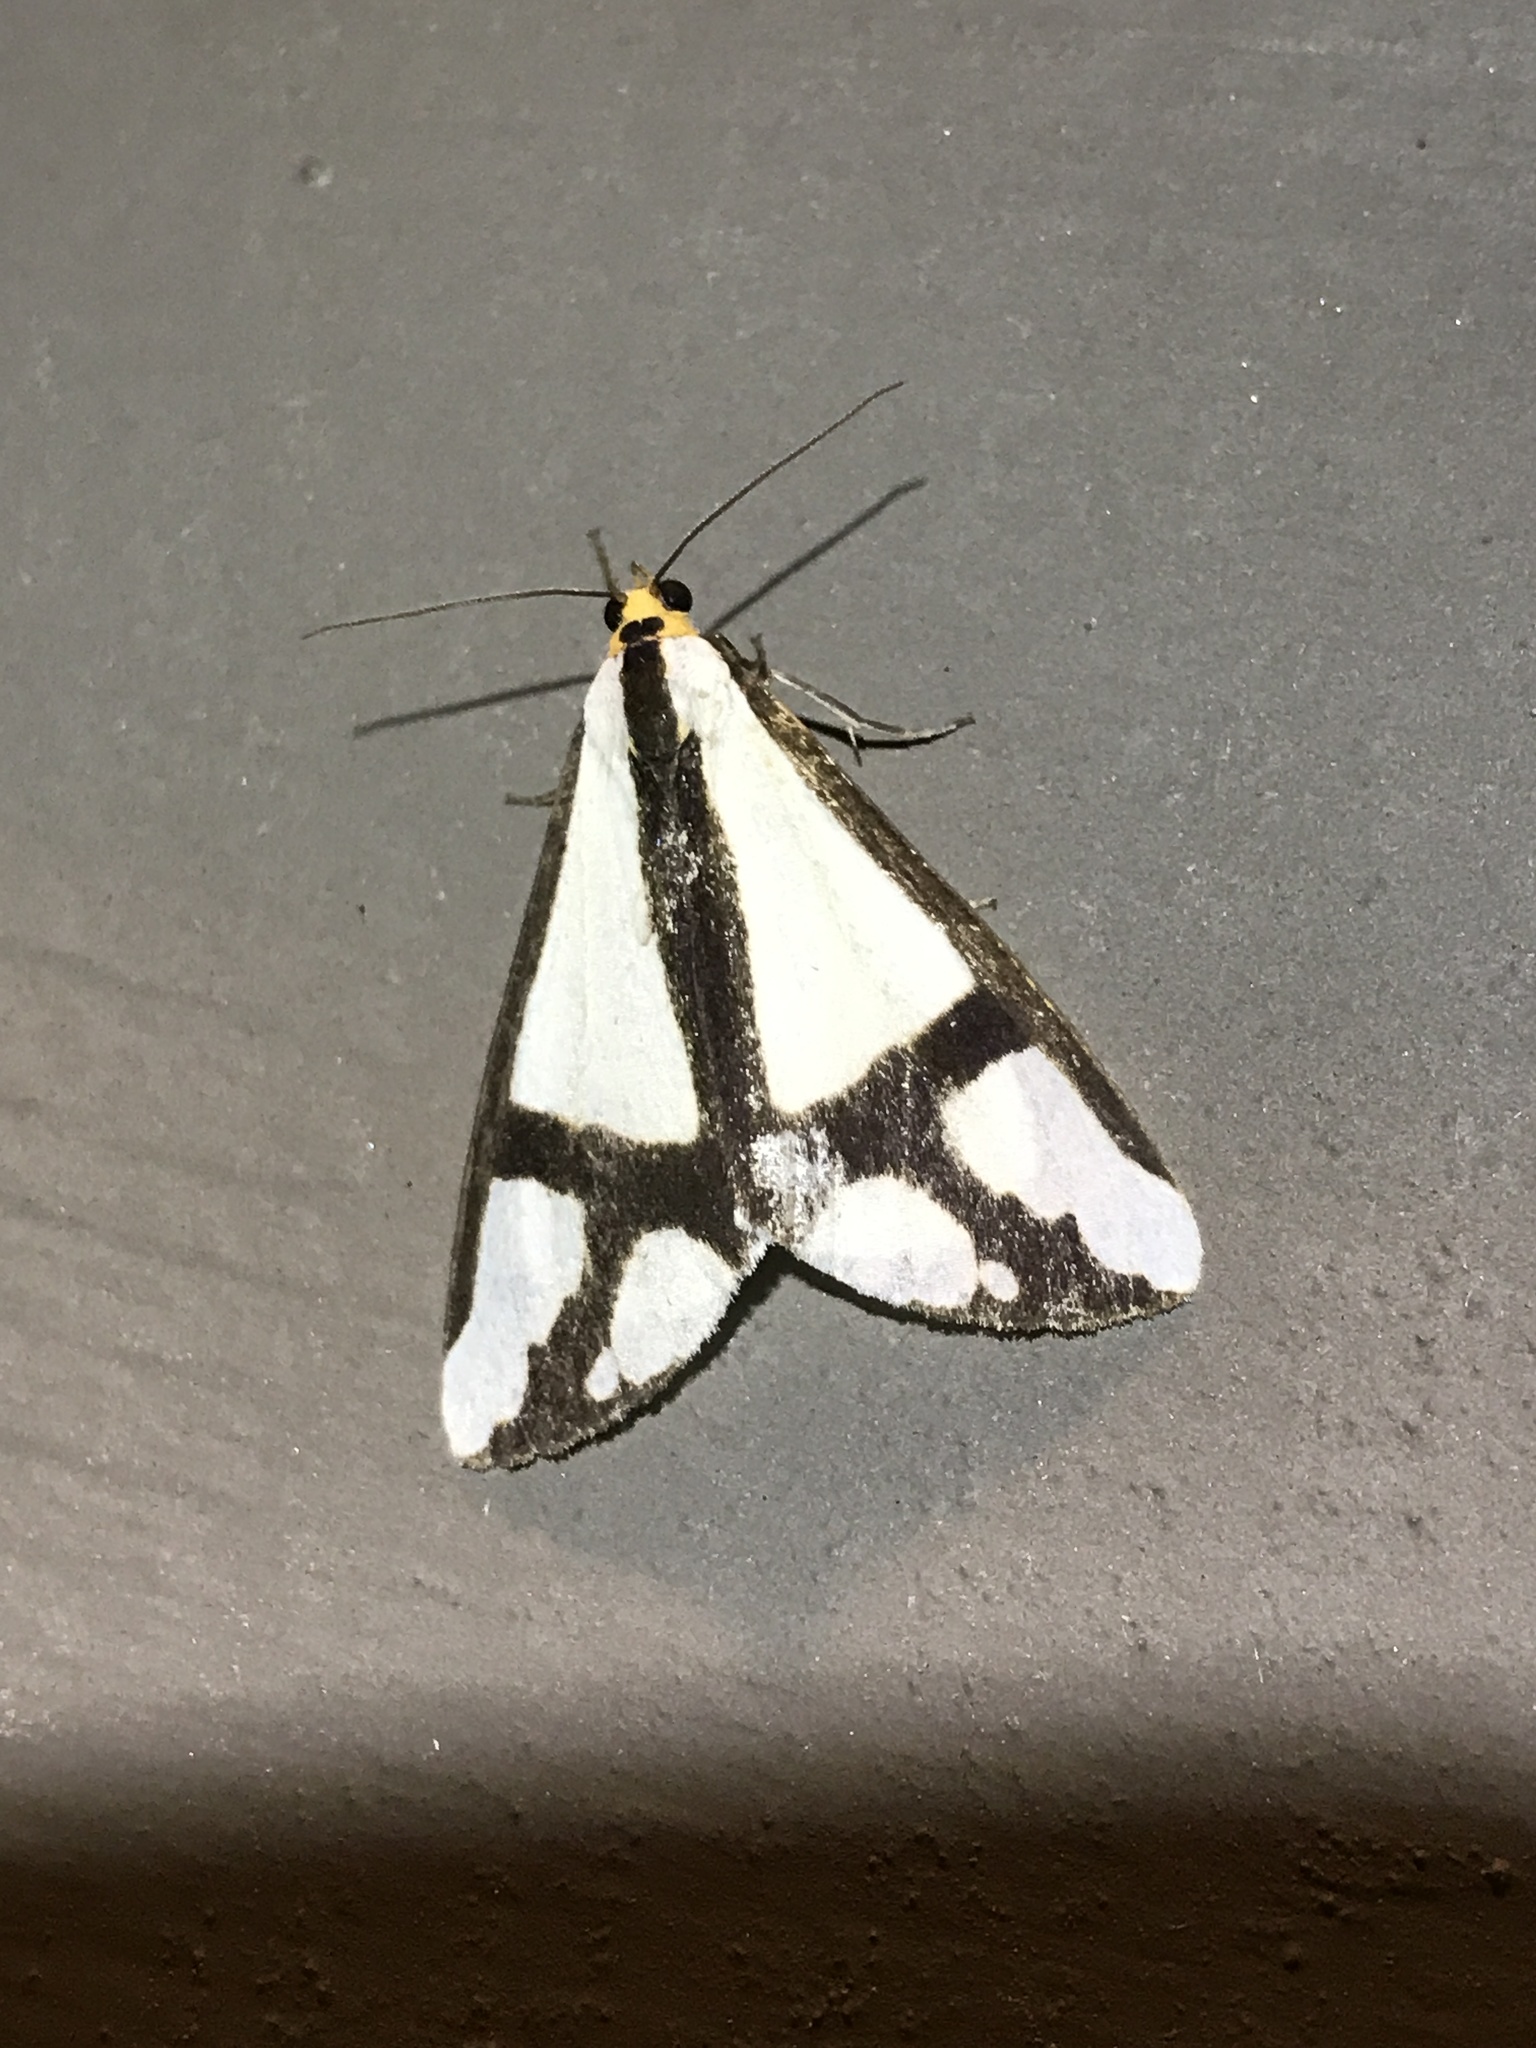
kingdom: Animalia
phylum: Arthropoda
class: Insecta
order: Lepidoptera
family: Erebidae
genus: Haploa
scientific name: Haploa contigua
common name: Neighbor moth
